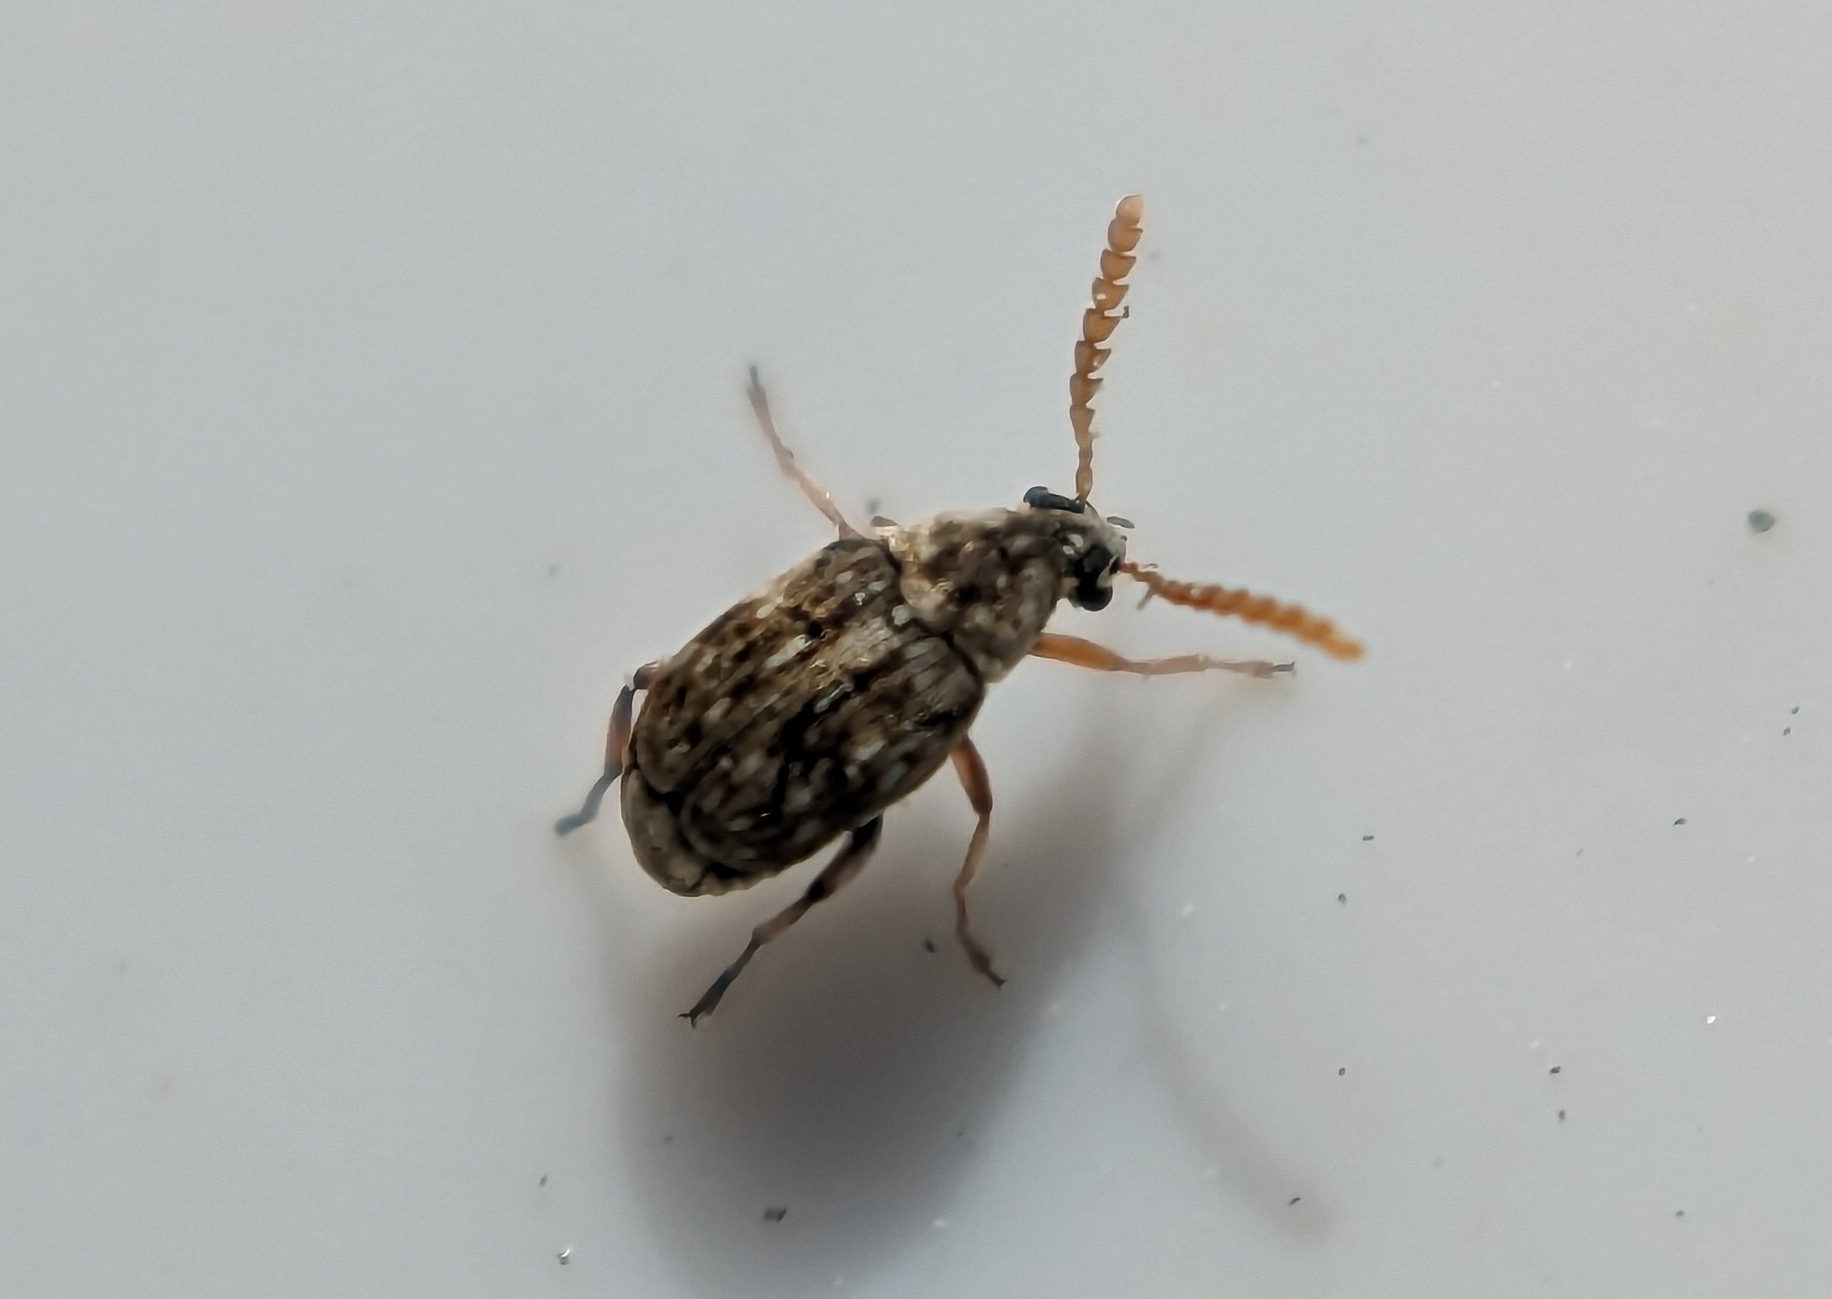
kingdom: Animalia
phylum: Arthropoda
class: Insecta
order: Coleoptera
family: Chrysomelidae
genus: Bruchidius
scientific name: Bruchidius imbricornis
